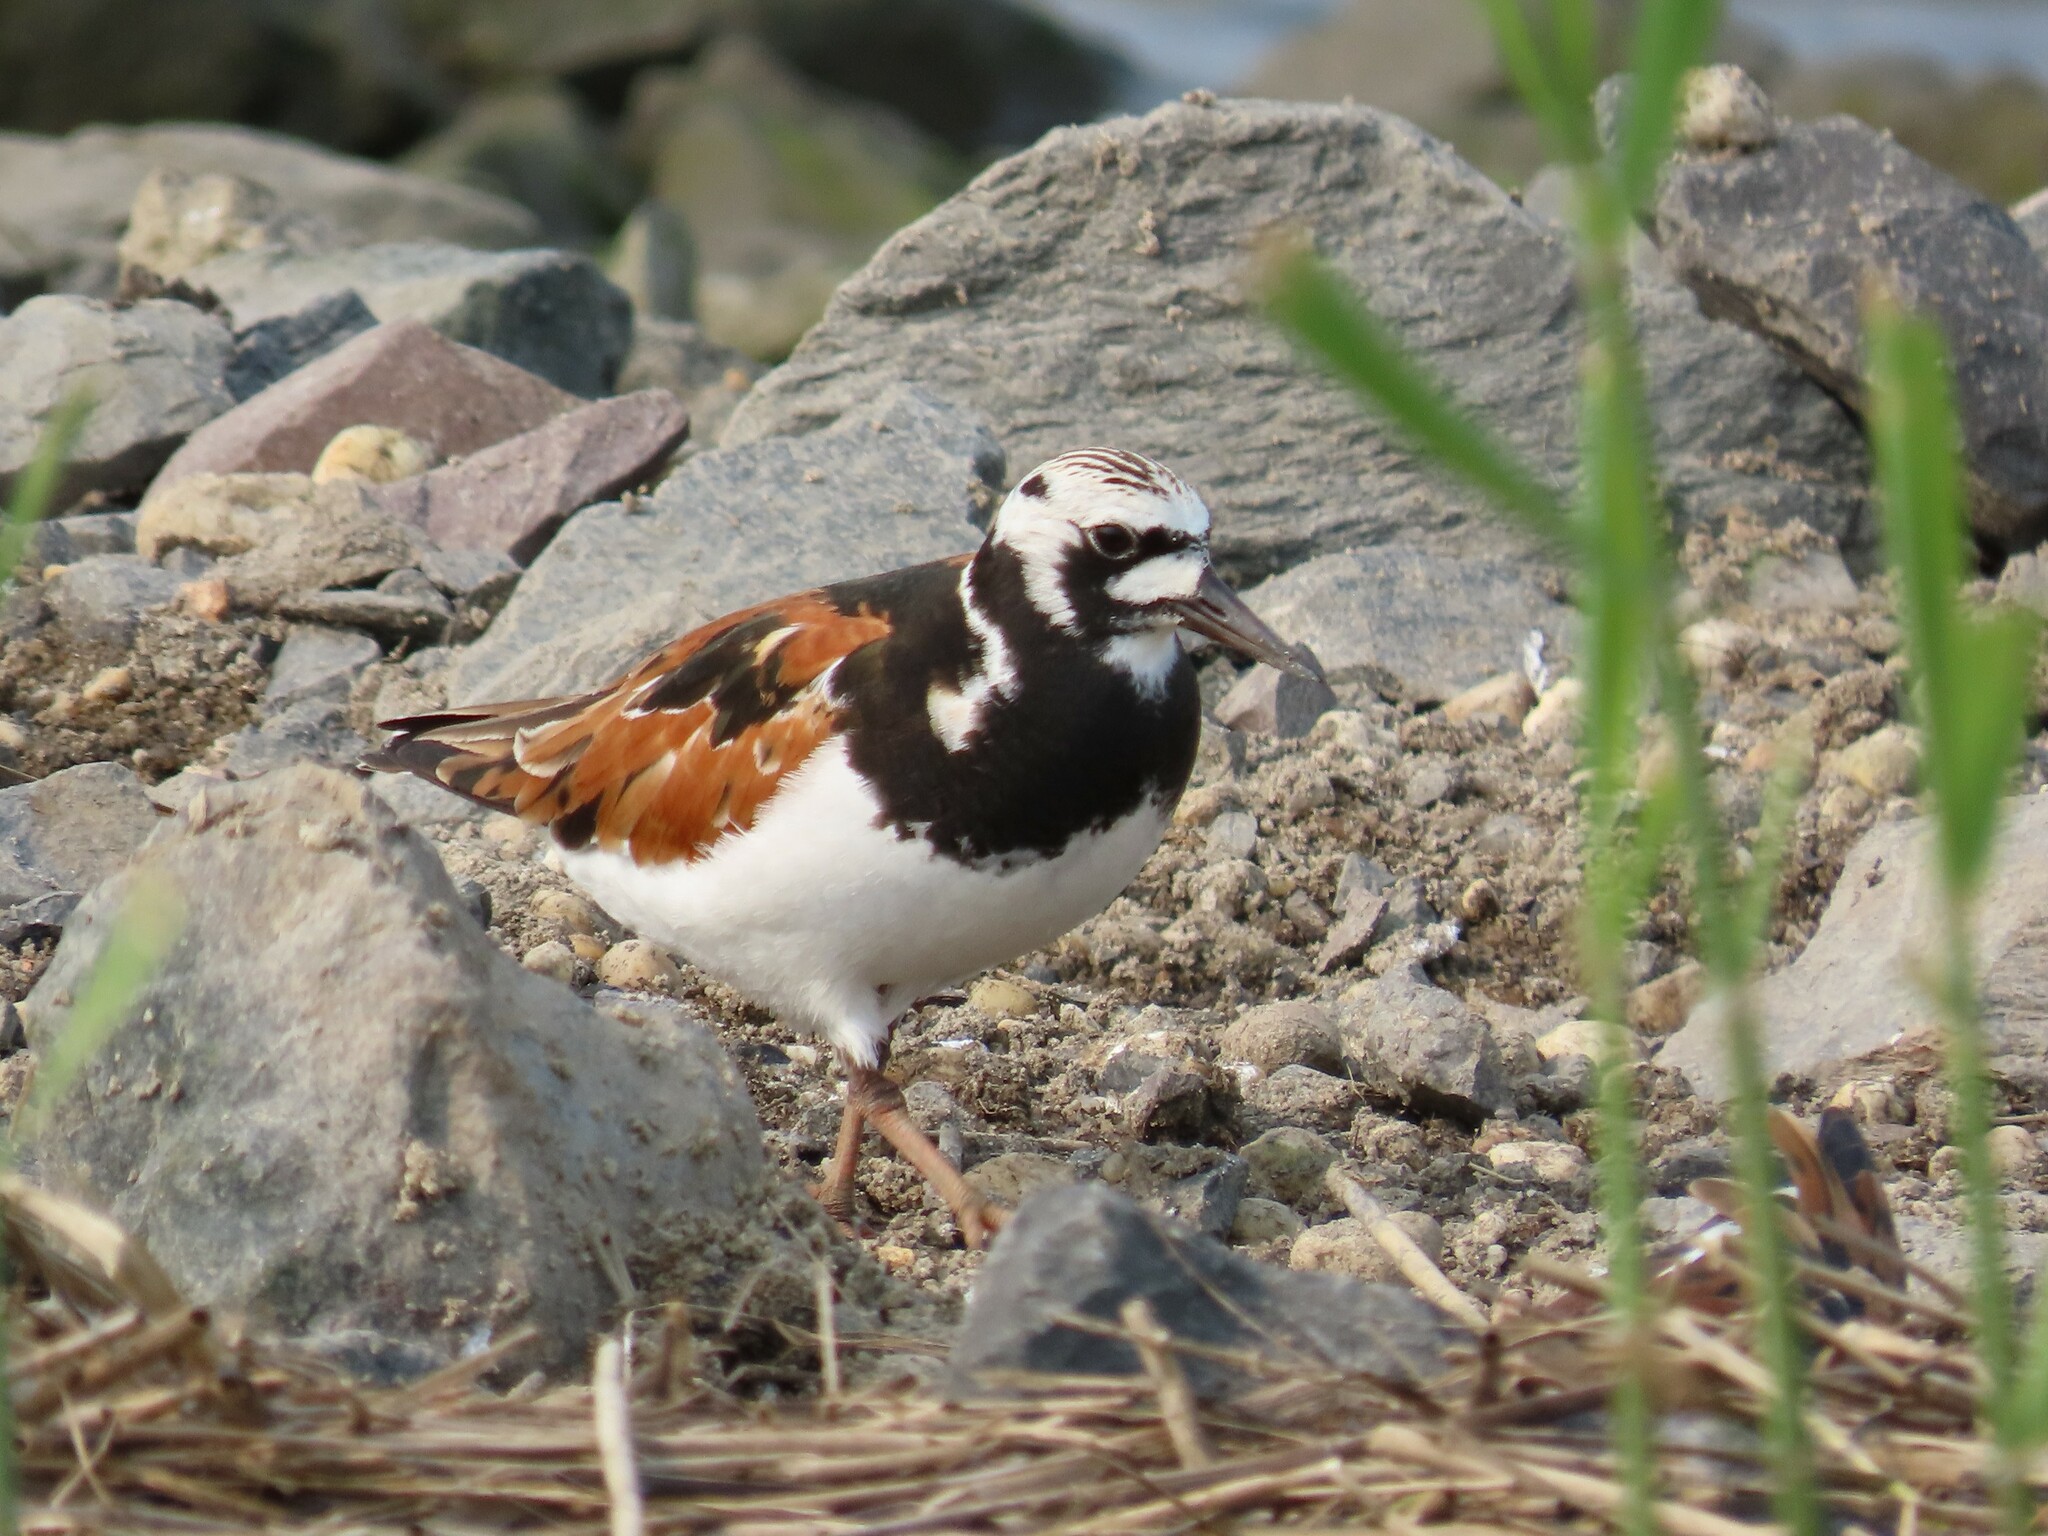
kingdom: Animalia
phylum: Chordata
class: Aves
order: Charadriiformes
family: Scolopacidae
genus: Arenaria
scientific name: Arenaria interpres
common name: Ruddy turnstone
